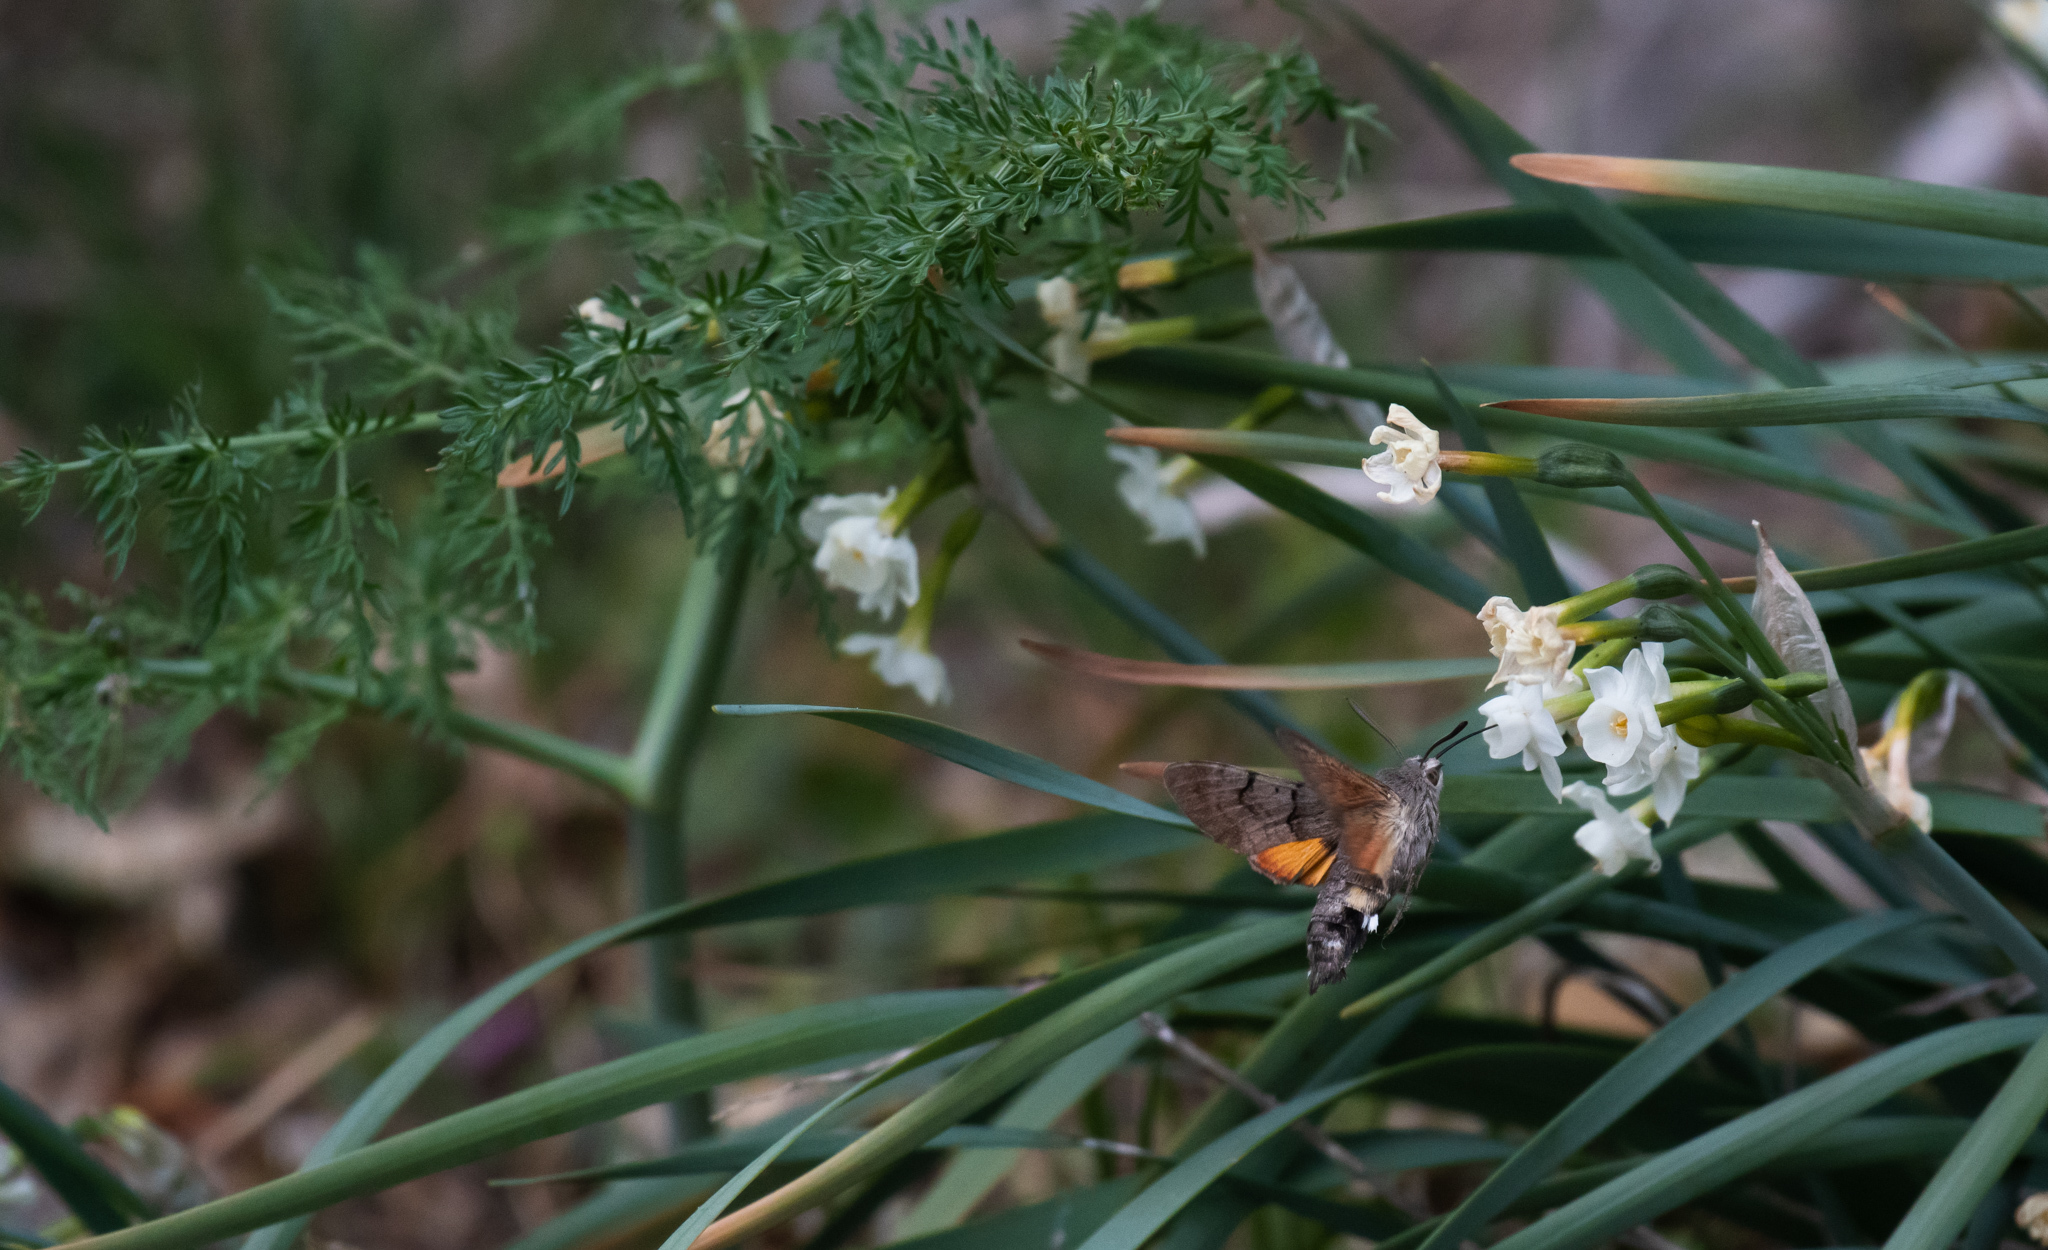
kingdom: Animalia
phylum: Arthropoda
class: Insecta
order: Lepidoptera
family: Sphingidae
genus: Macroglossum
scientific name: Macroglossum stellatarum
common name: Humming-bird hawk-moth
